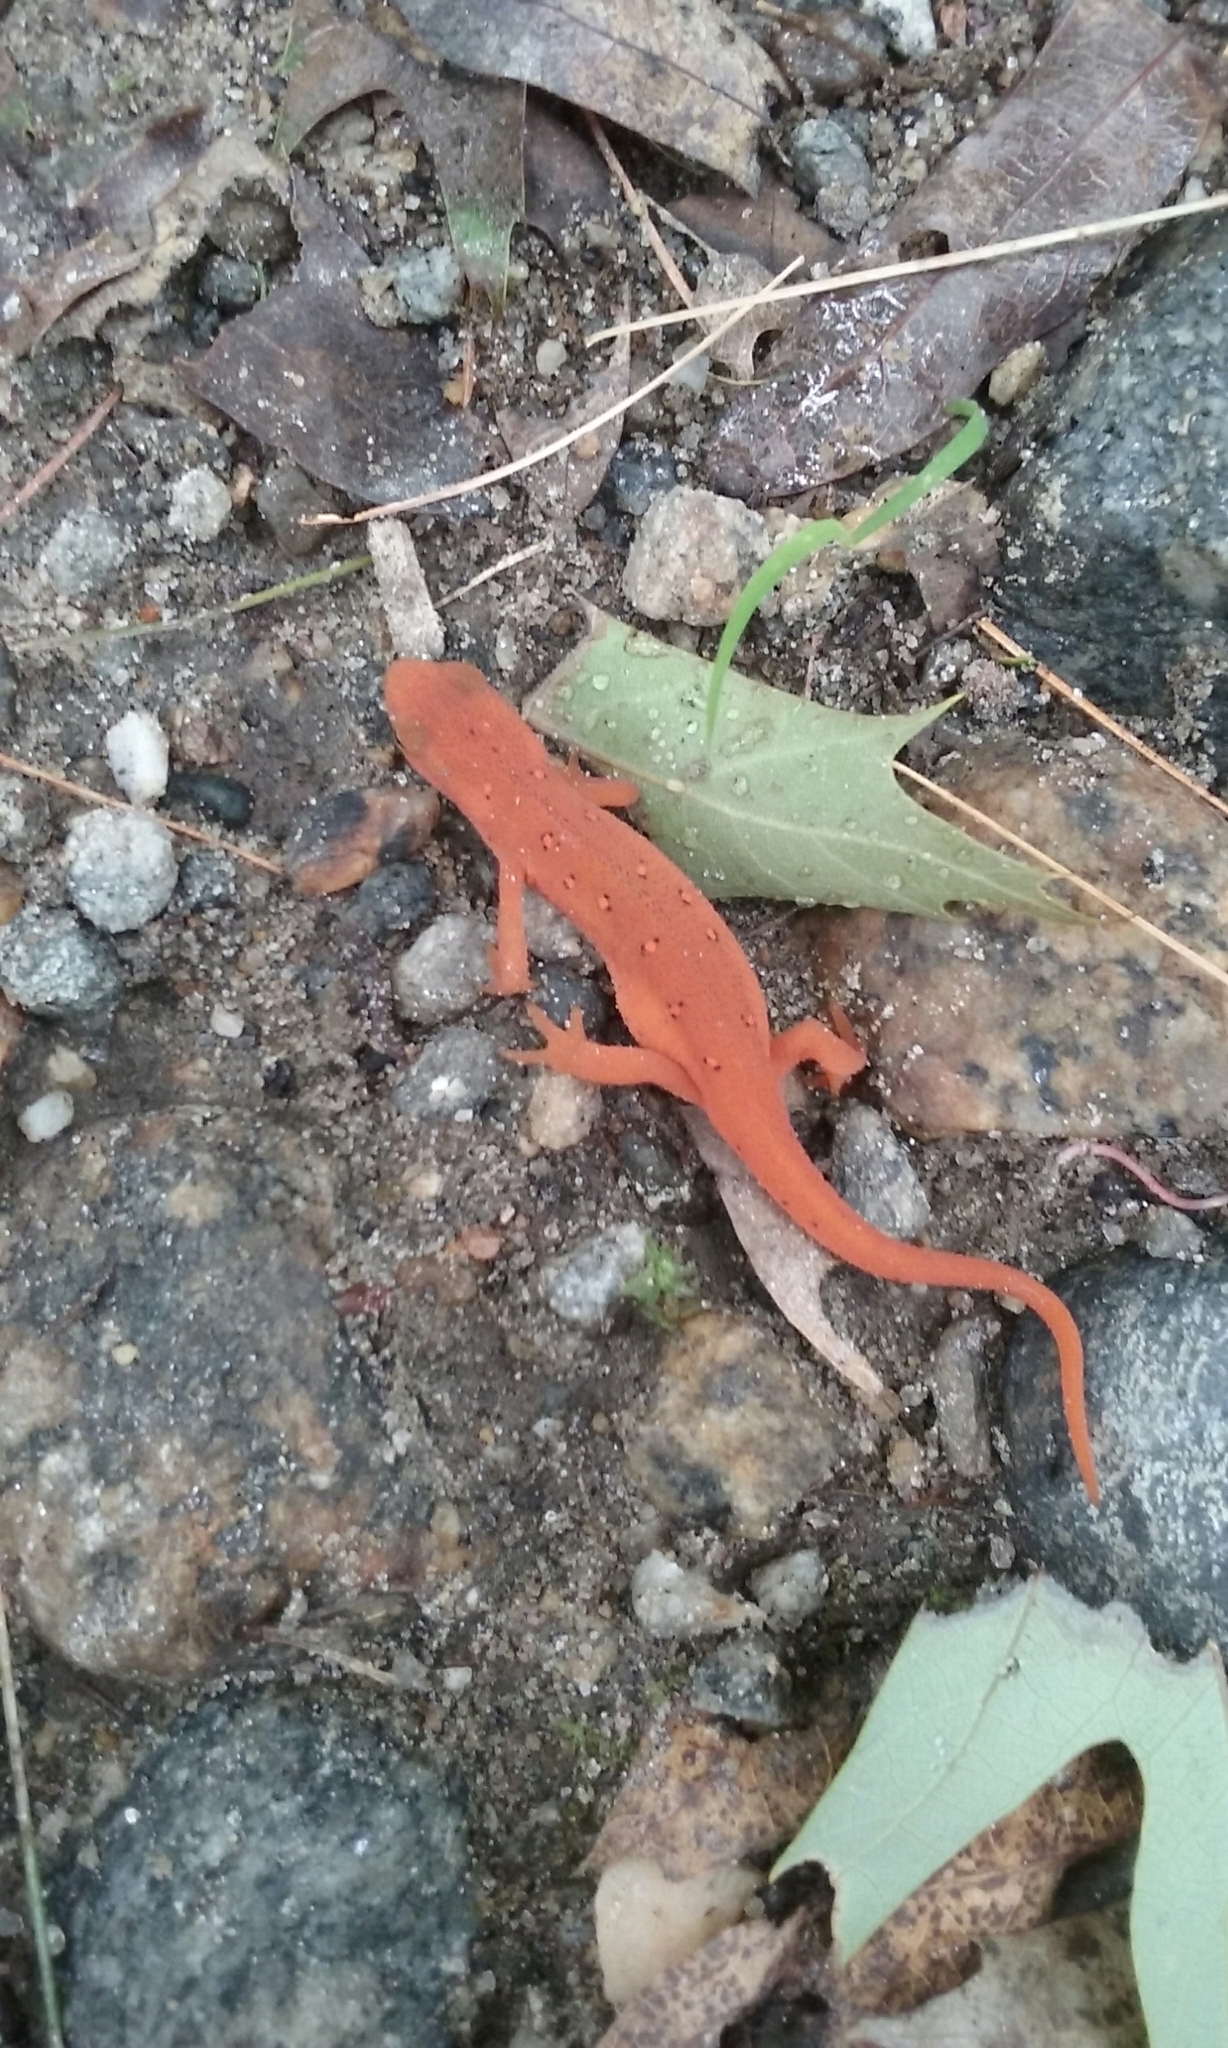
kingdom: Animalia
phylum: Chordata
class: Amphibia
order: Caudata
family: Salamandridae
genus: Notophthalmus
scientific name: Notophthalmus viridescens
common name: Eastern newt
